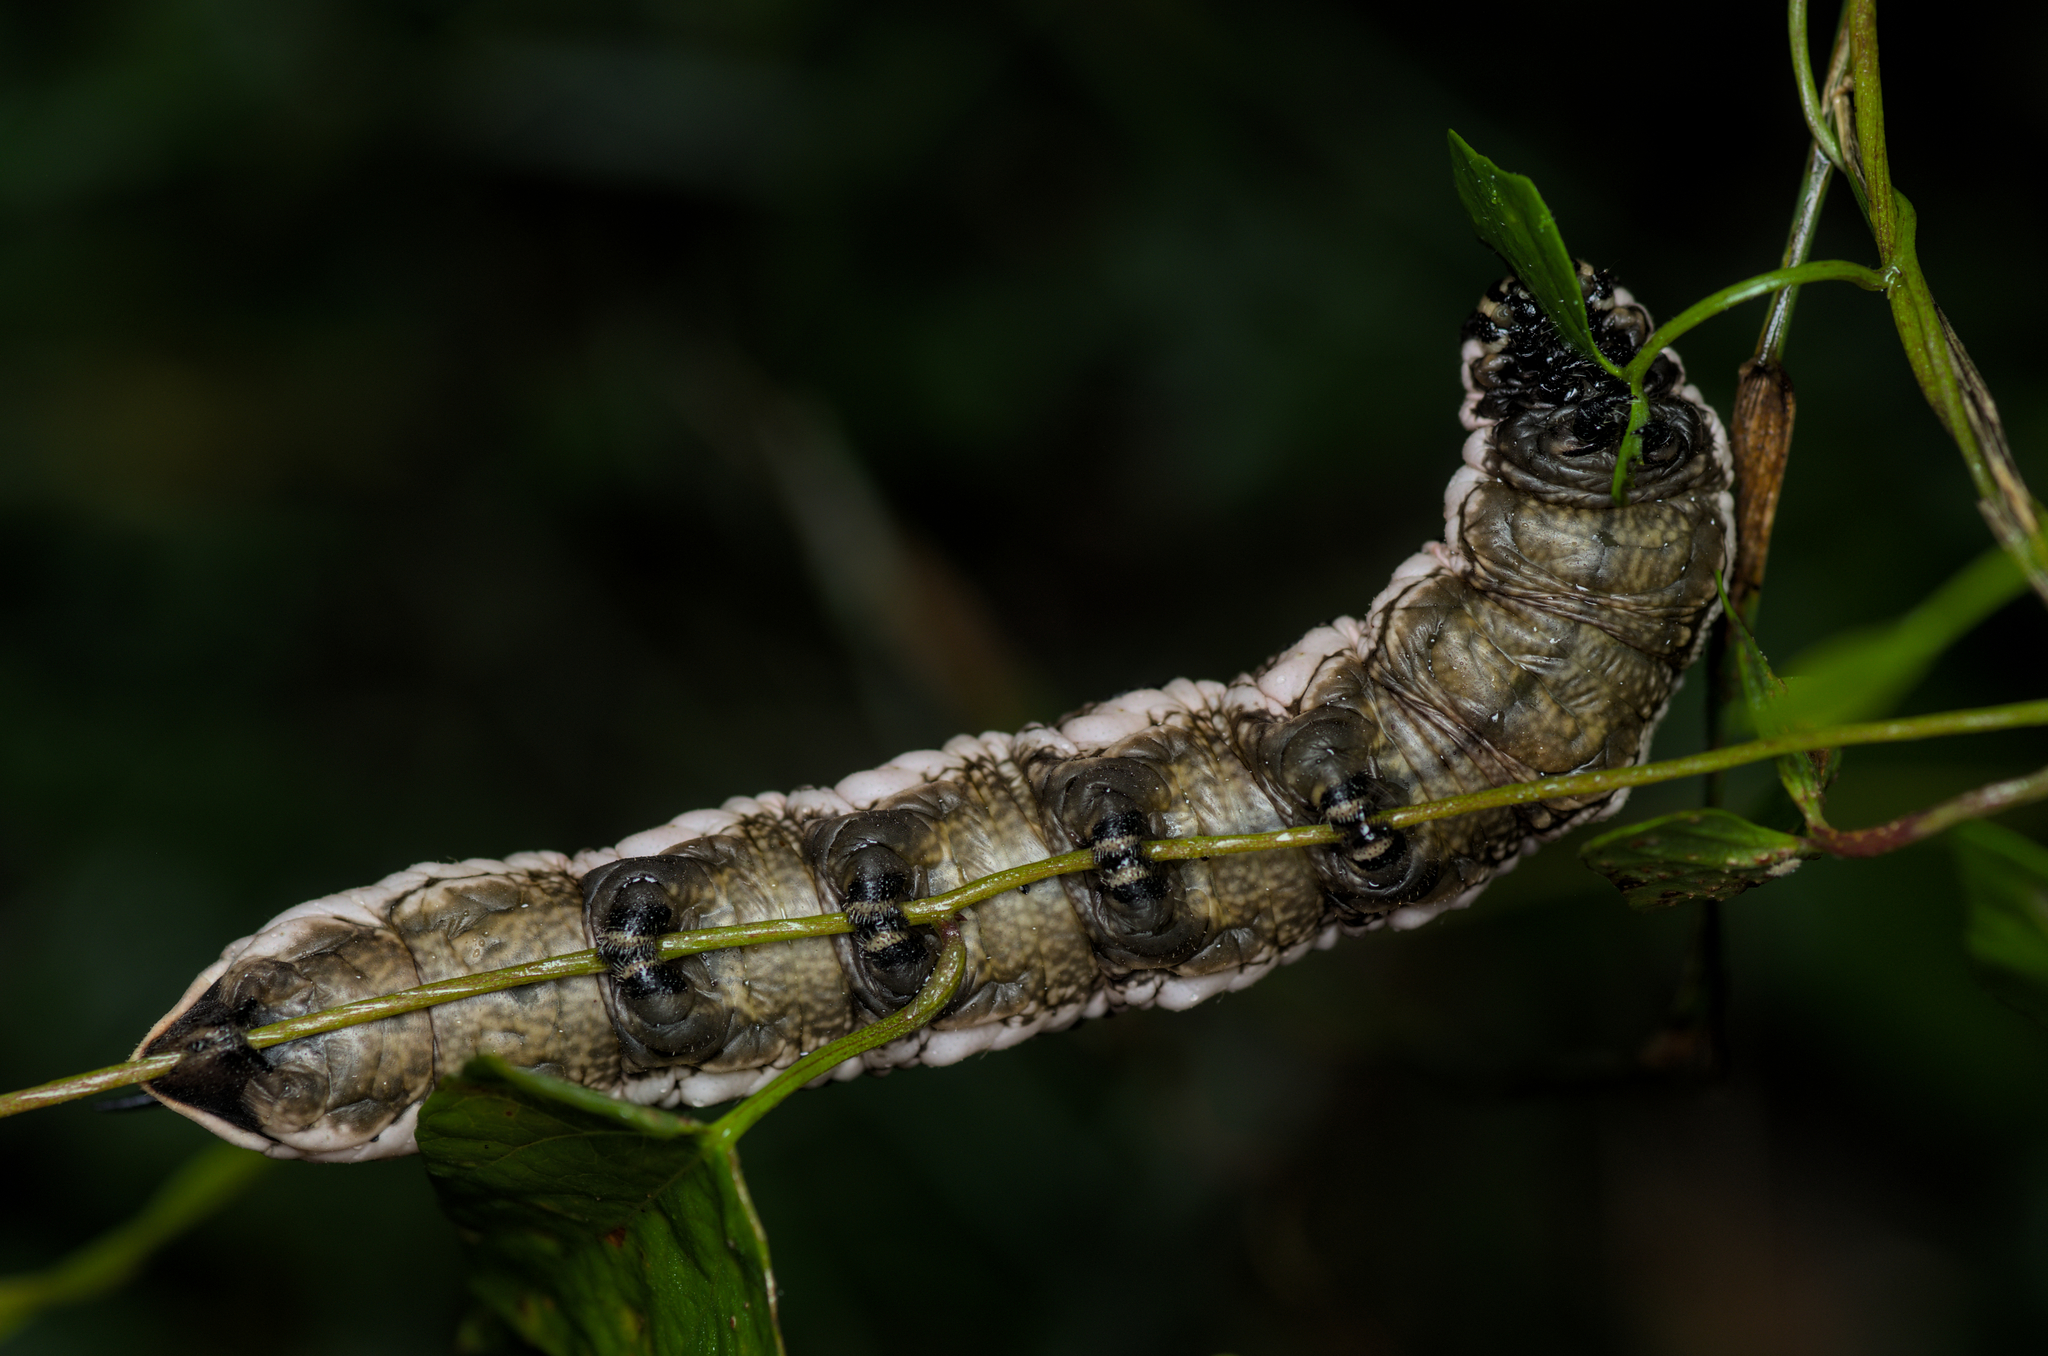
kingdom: Animalia
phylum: Arthropoda
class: Insecta
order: Lepidoptera
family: Sphingidae
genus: Agrius
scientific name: Agrius convolvuli
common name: Convolvulus hawkmoth
